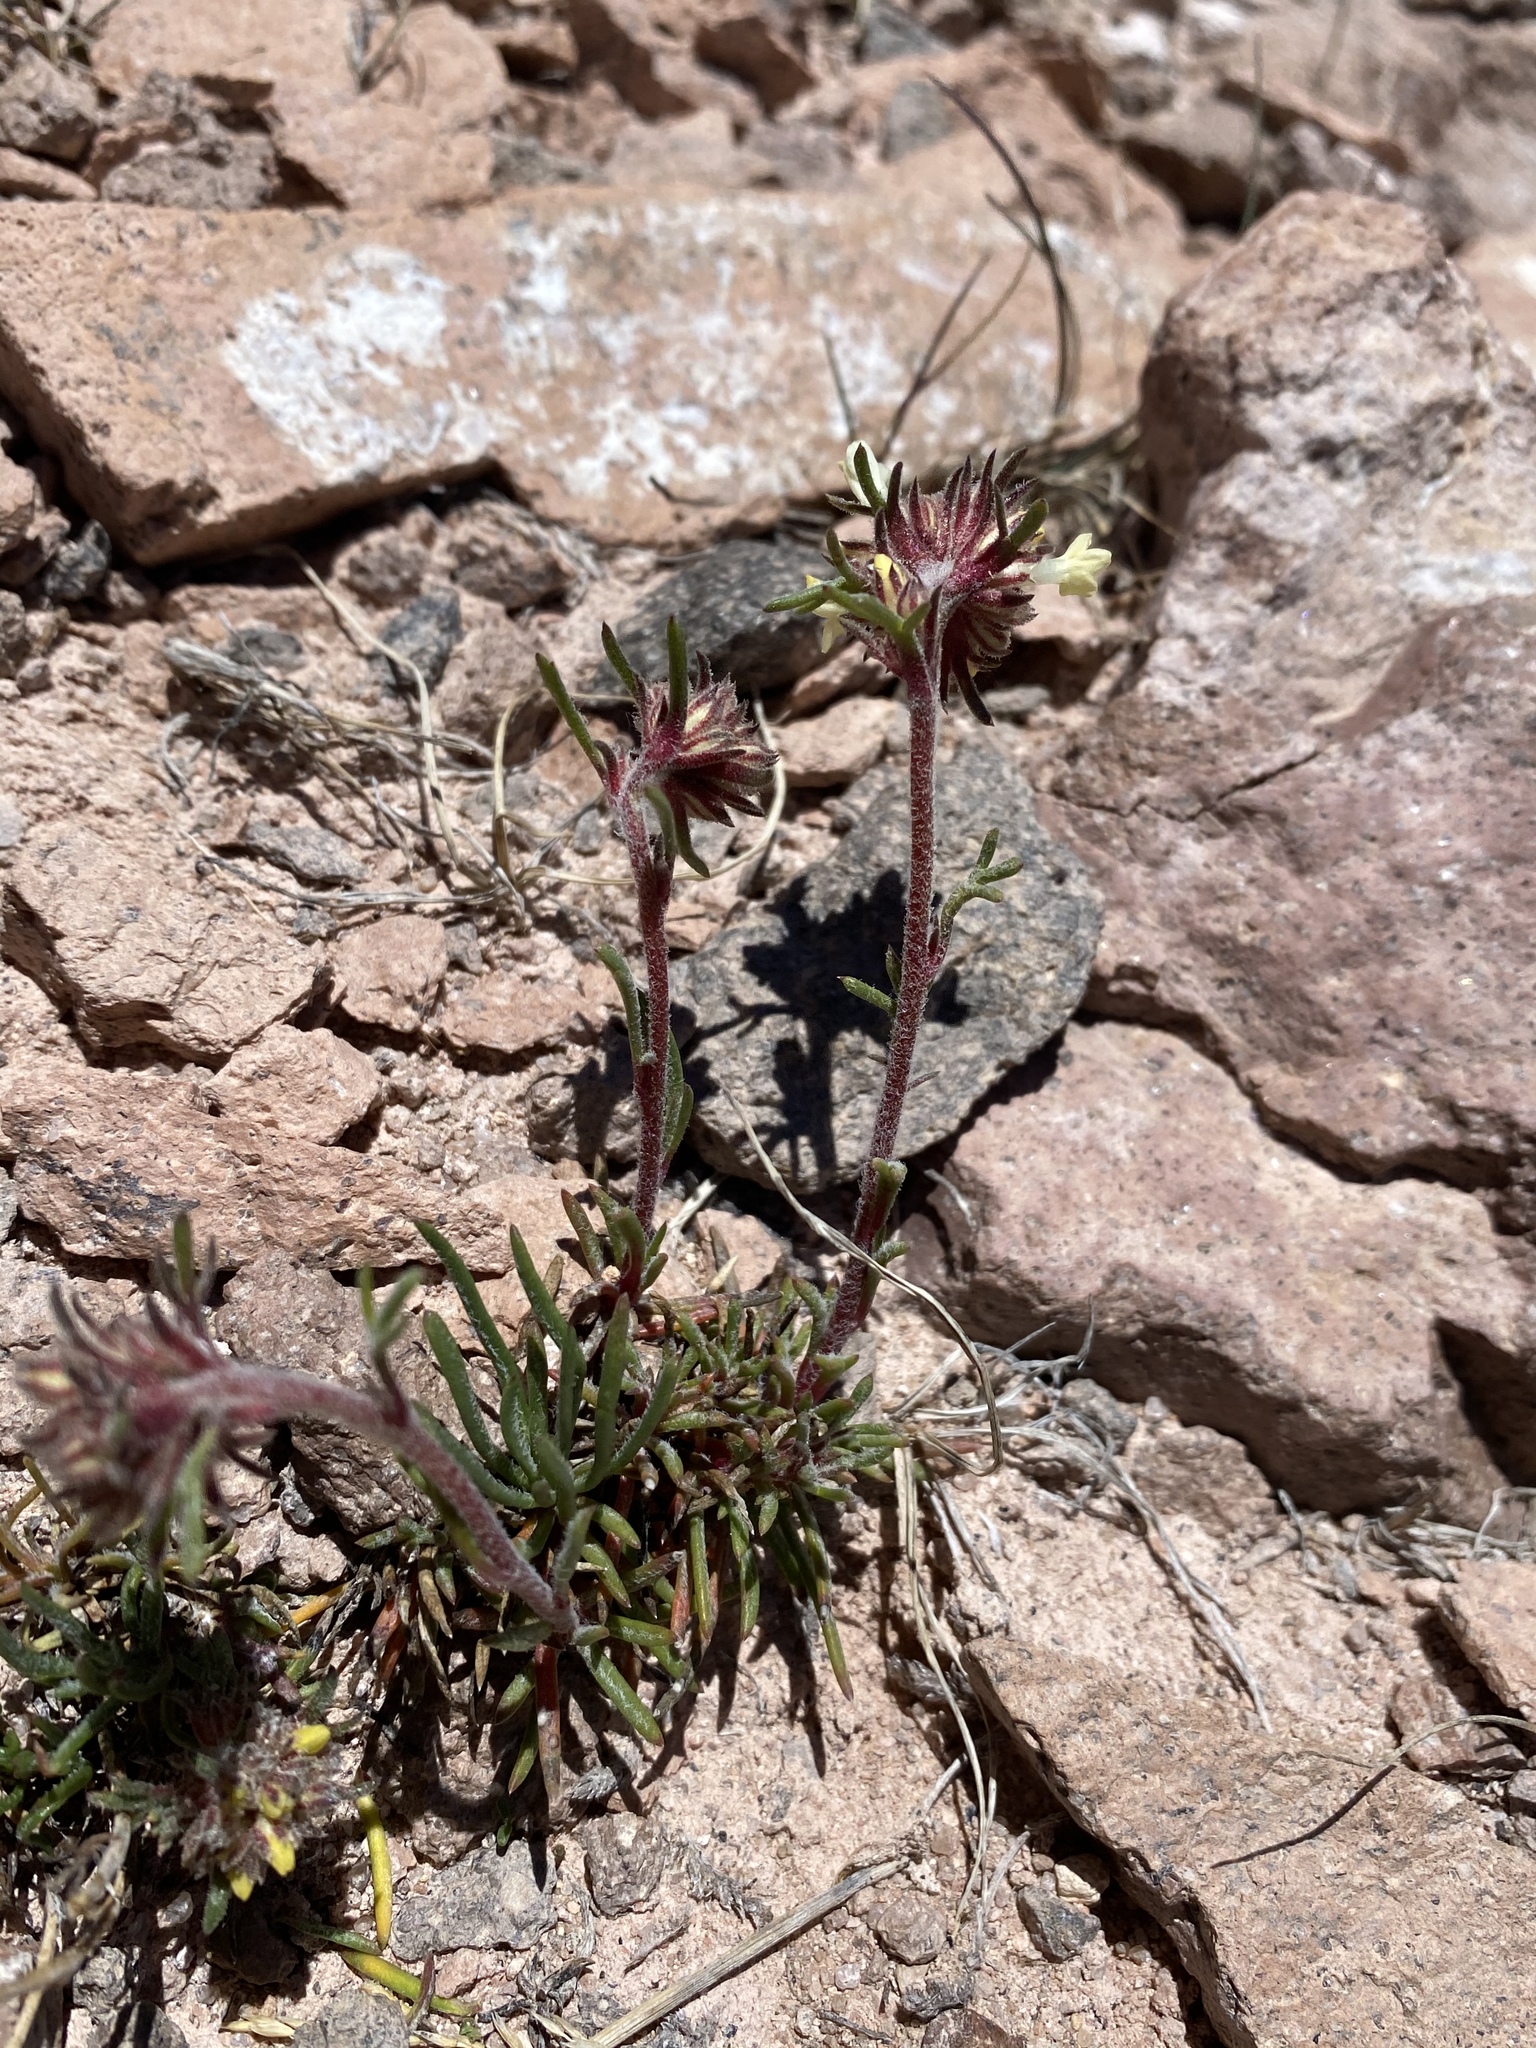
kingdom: Plantae
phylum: Tracheophyta
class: Magnoliopsida
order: Ericales
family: Polemoniaceae
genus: Ipomopsis
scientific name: Ipomopsis spicata
